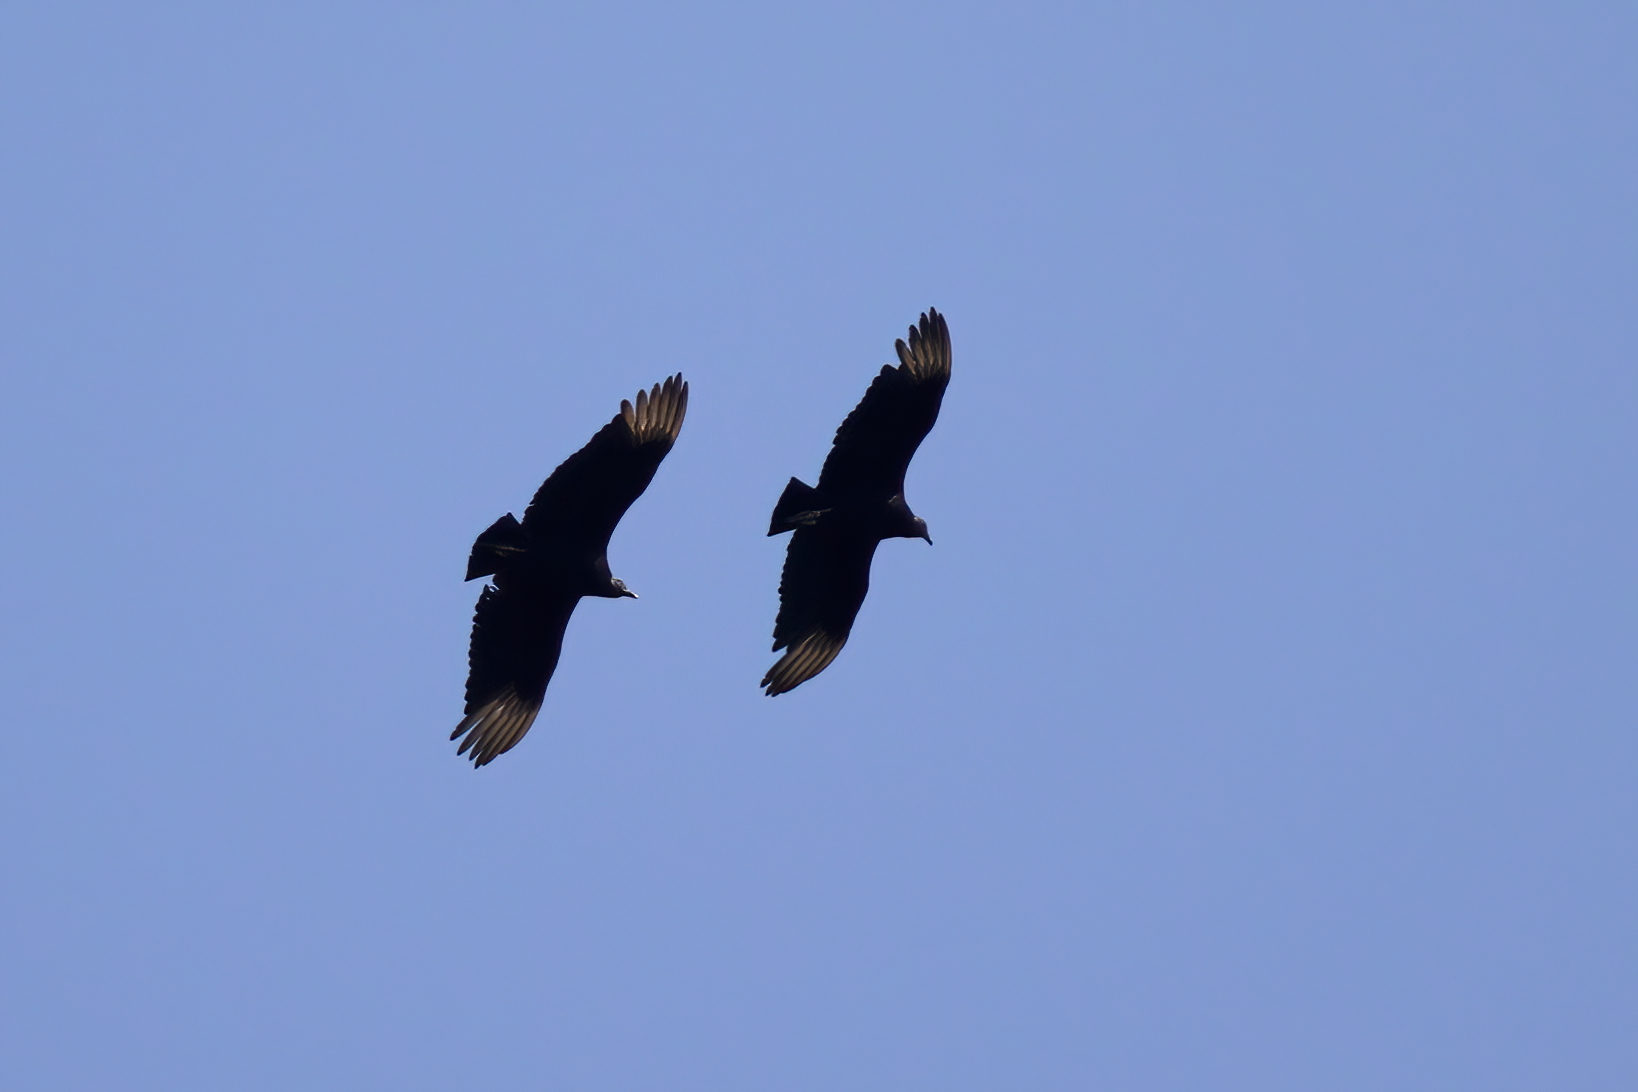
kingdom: Animalia
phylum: Chordata
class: Aves
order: Accipitriformes
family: Cathartidae
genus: Coragyps
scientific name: Coragyps atratus
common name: Black vulture
